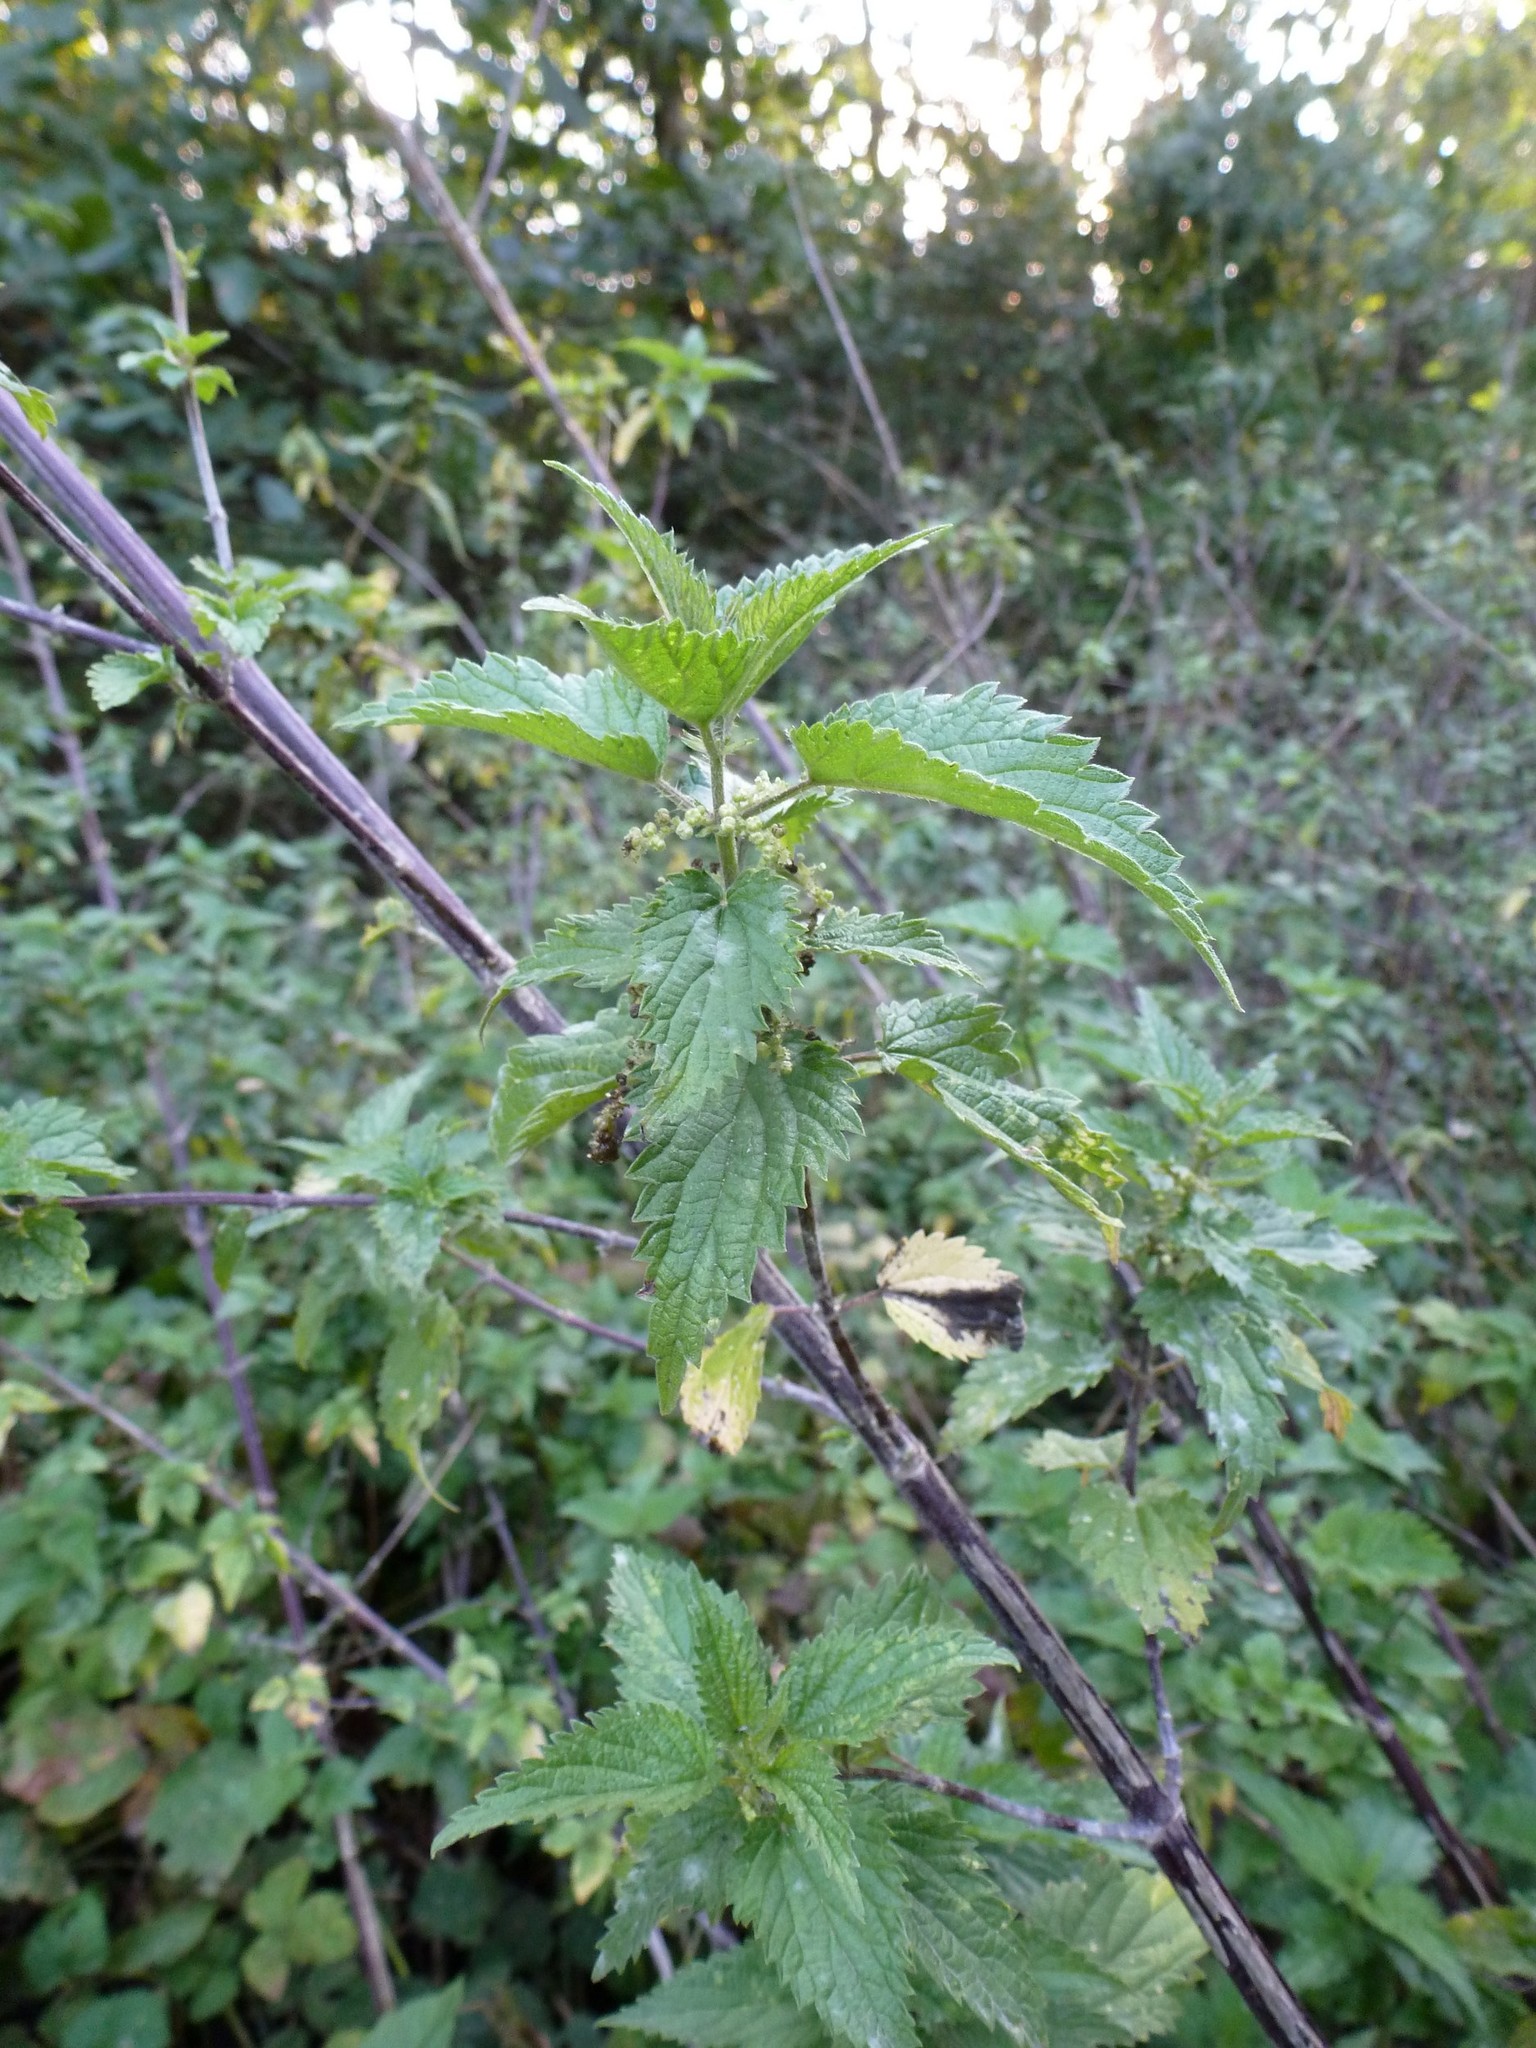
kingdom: Plantae
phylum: Tracheophyta
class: Magnoliopsida
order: Rosales
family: Urticaceae
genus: Urtica
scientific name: Urtica dioica
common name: Common nettle
